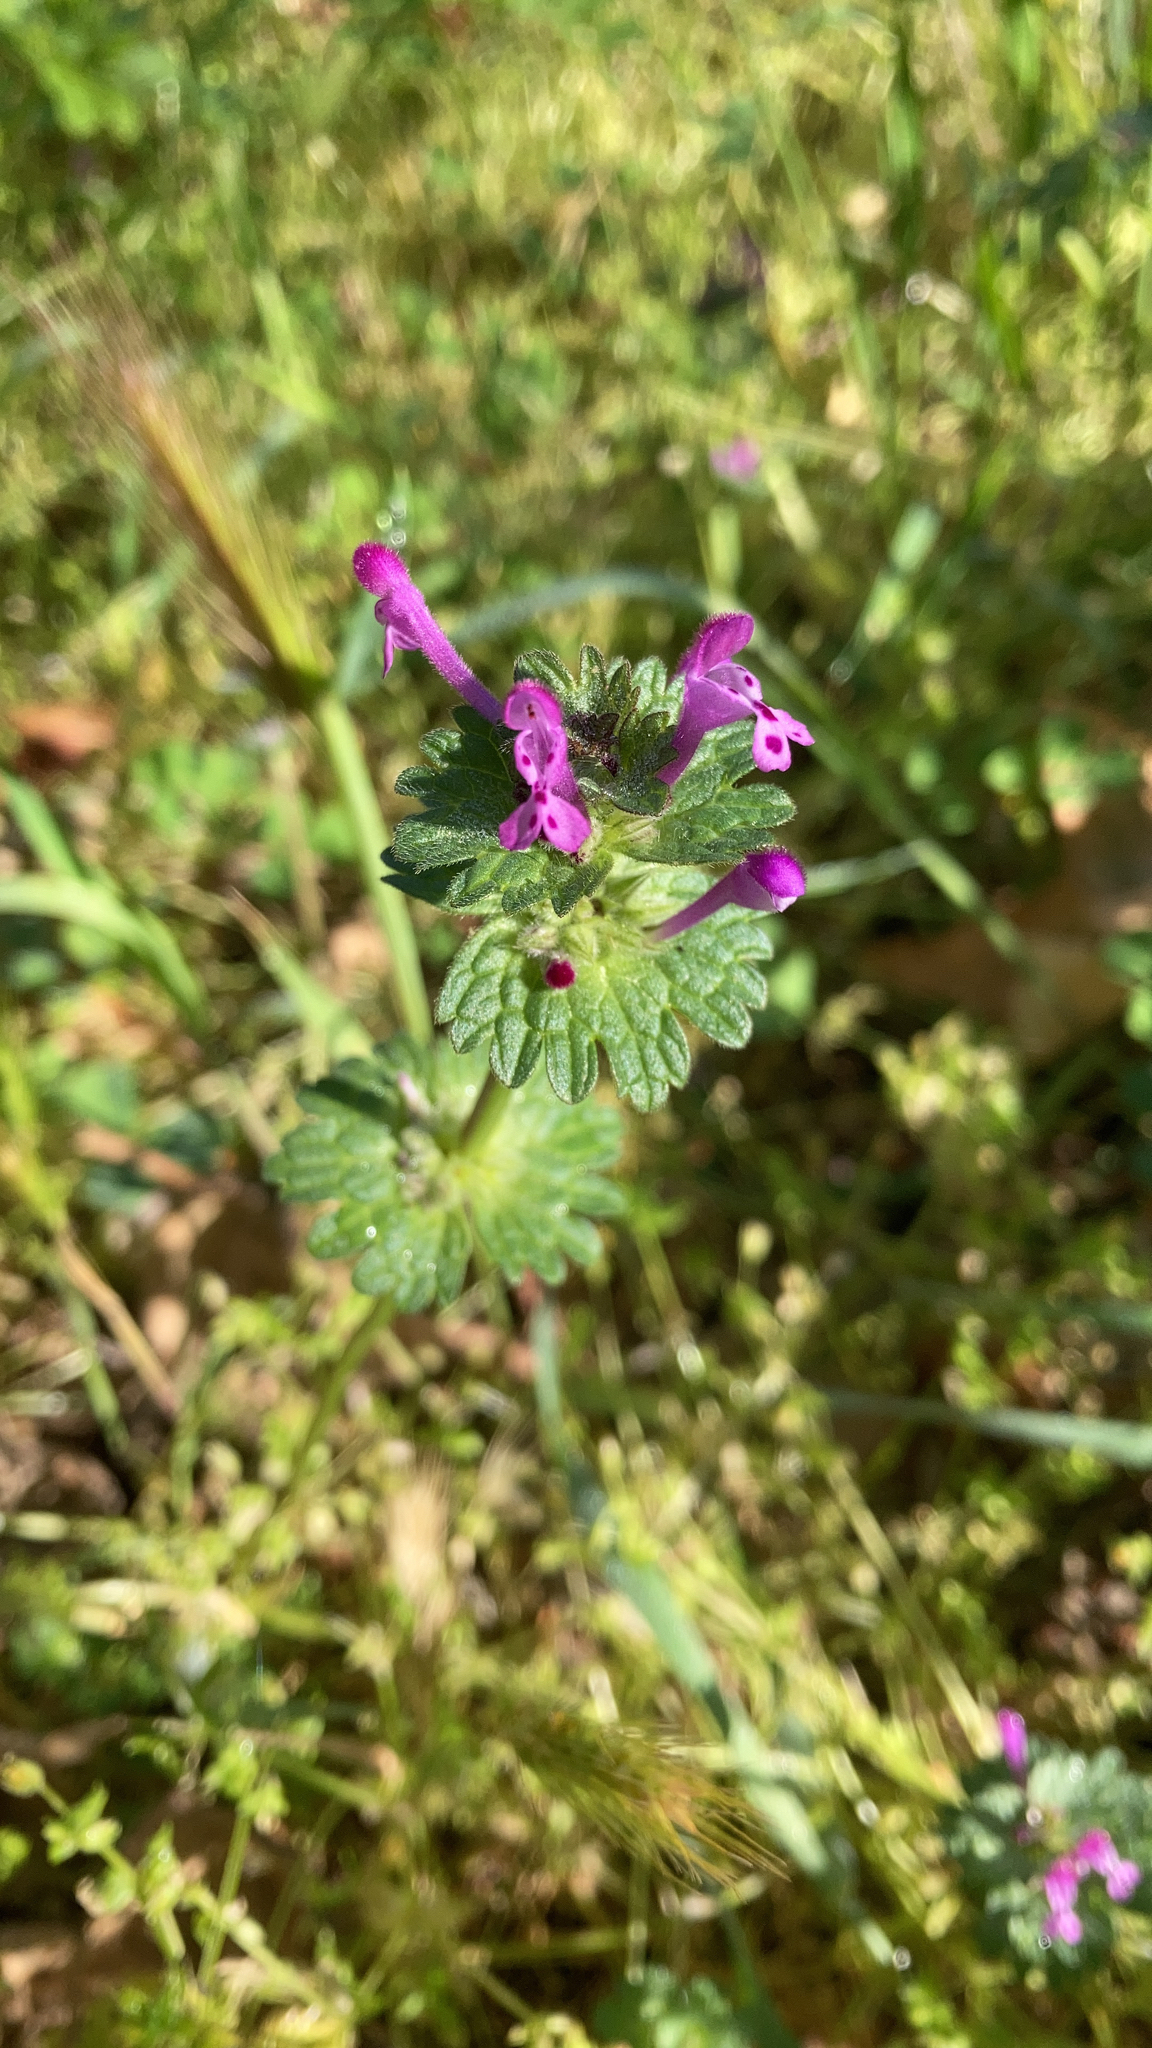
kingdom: Plantae
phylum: Tracheophyta
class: Magnoliopsida
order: Lamiales
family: Lamiaceae
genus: Lamium
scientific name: Lamium amplexicaule
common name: Henbit dead-nettle
